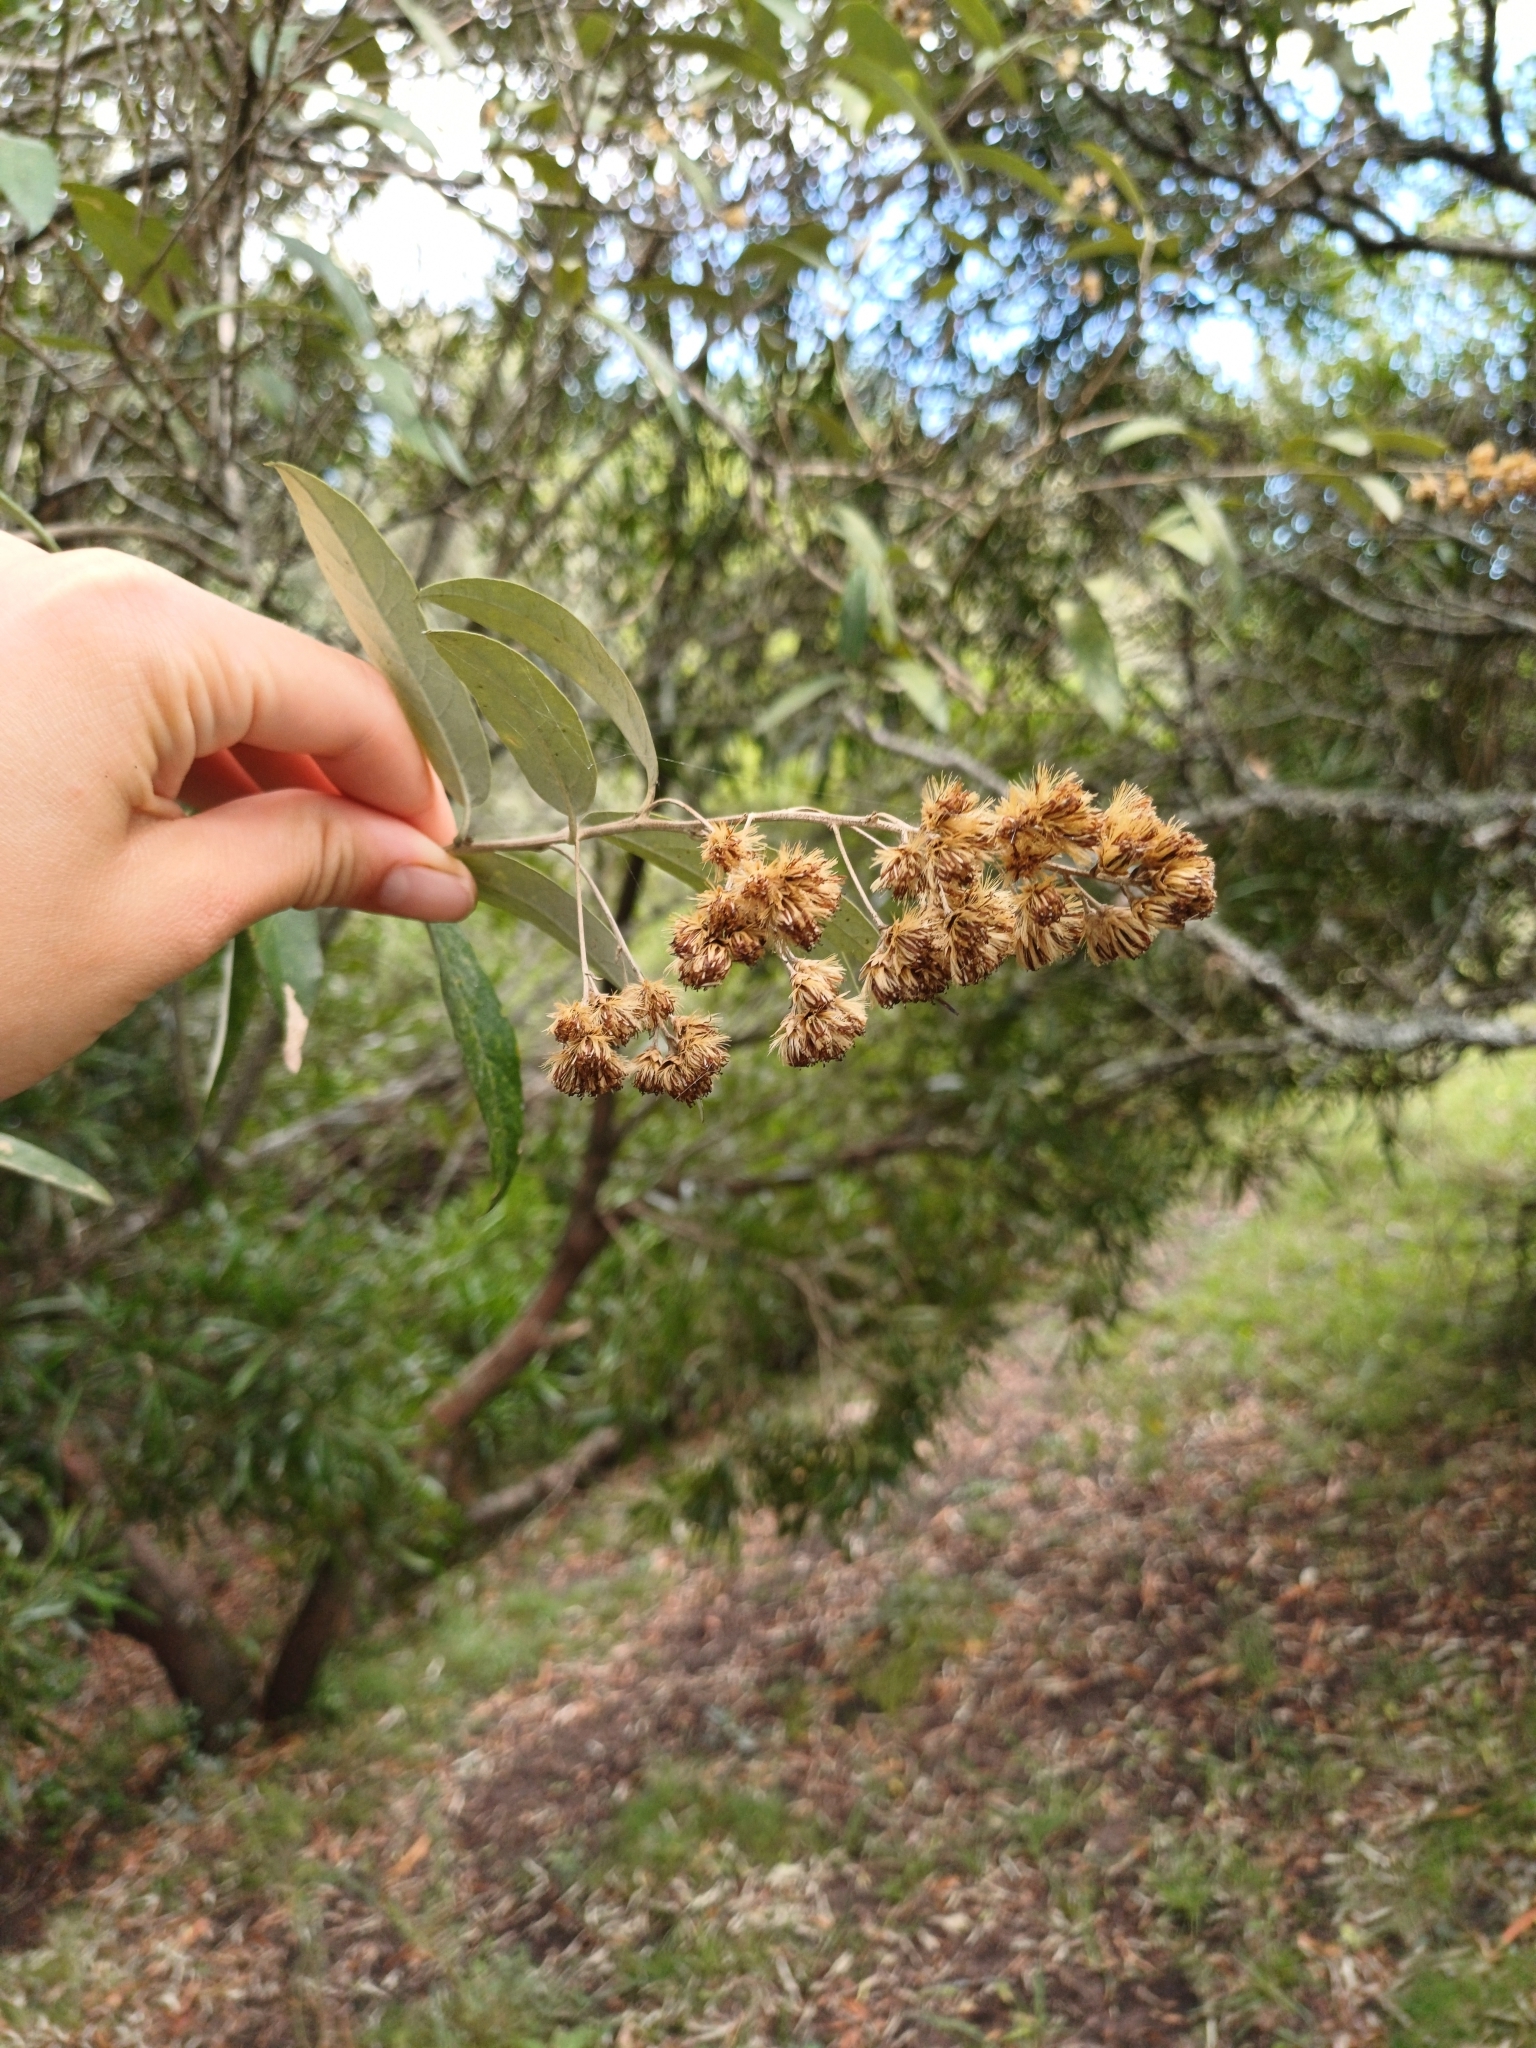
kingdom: Plantae
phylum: Tracheophyta
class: Magnoliopsida
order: Asterales
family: Asteraceae
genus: Moquiniastrum
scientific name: Moquiniastrum polymorphum
